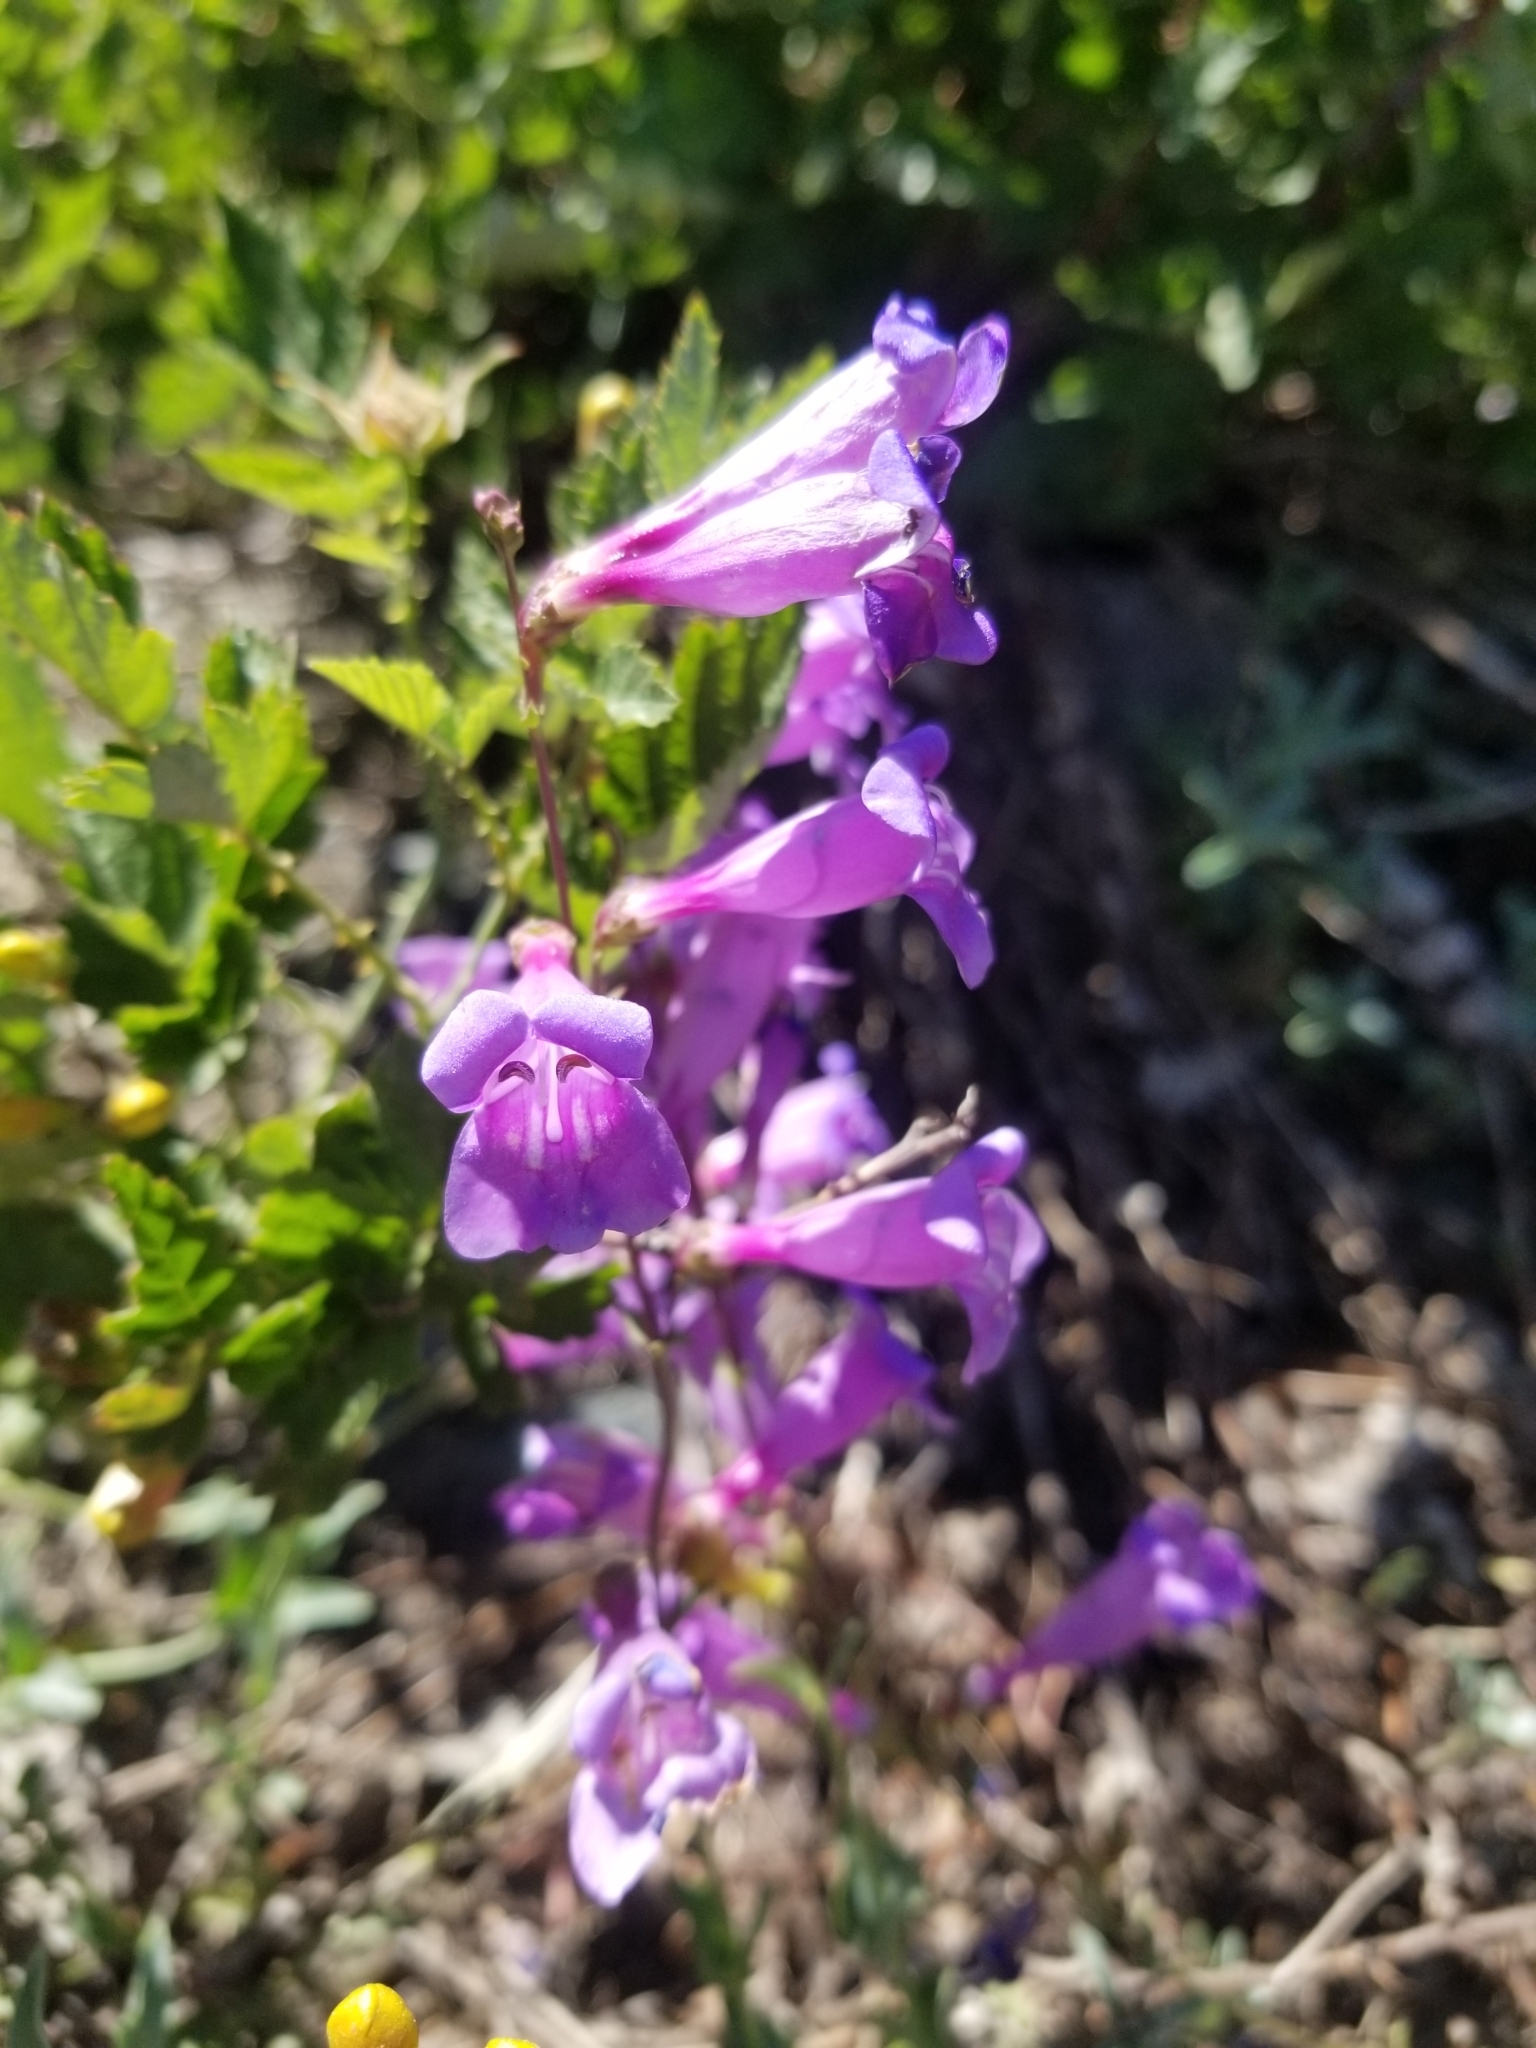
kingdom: Plantae
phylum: Tracheophyta
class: Magnoliopsida
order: Lamiales
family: Plantaginaceae
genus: Penstemon
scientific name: Penstemon heterophyllus
